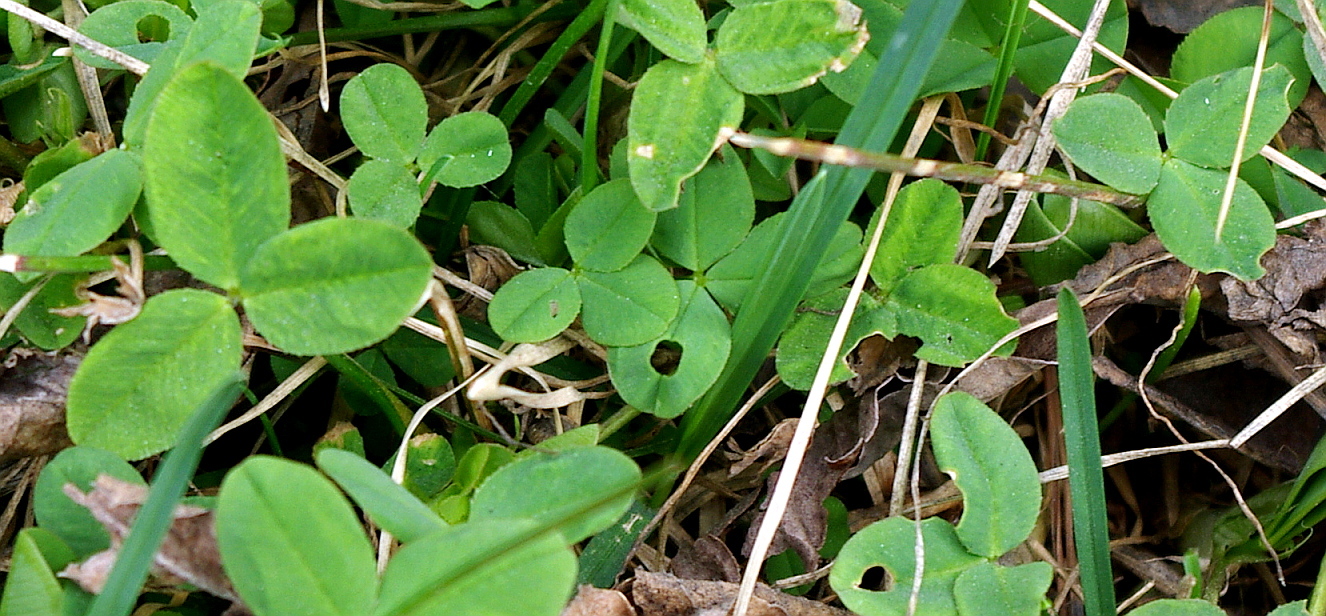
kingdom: Plantae
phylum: Tracheophyta
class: Magnoliopsida
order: Fabales
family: Fabaceae
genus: Medicago
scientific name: Medicago lupulina
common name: Black medick
